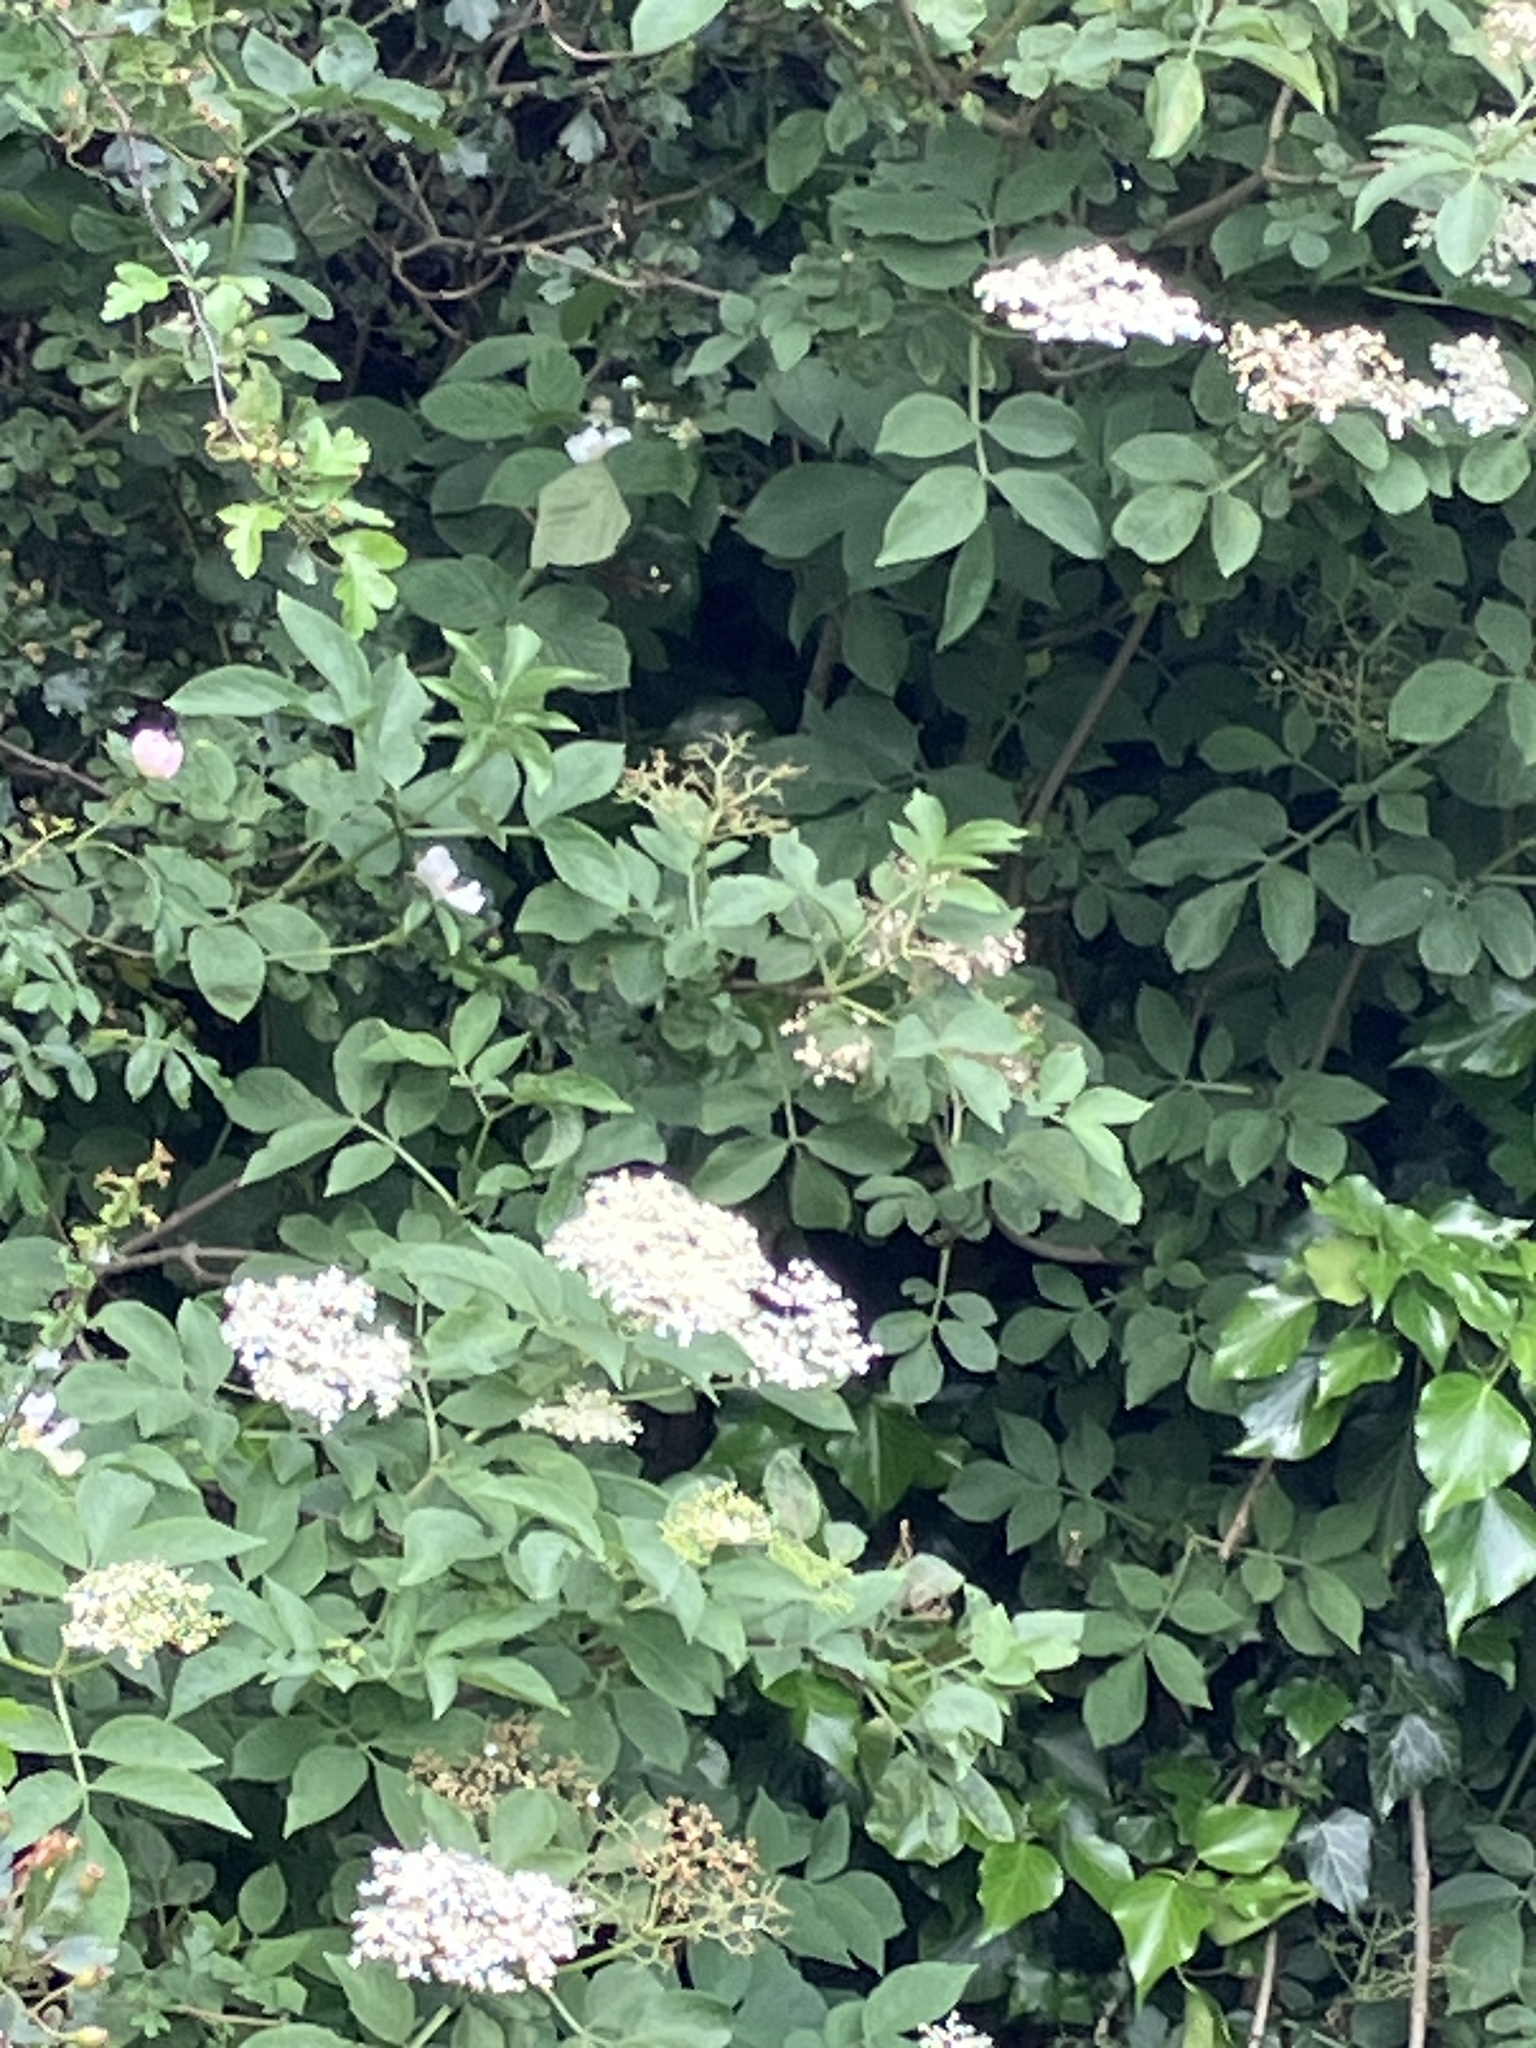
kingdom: Plantae
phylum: Tracheophyta
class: Magnoliopsida
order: Dipsacales
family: Viburnaceae
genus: Sambucus
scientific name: Sambucus nigra
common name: Elder
